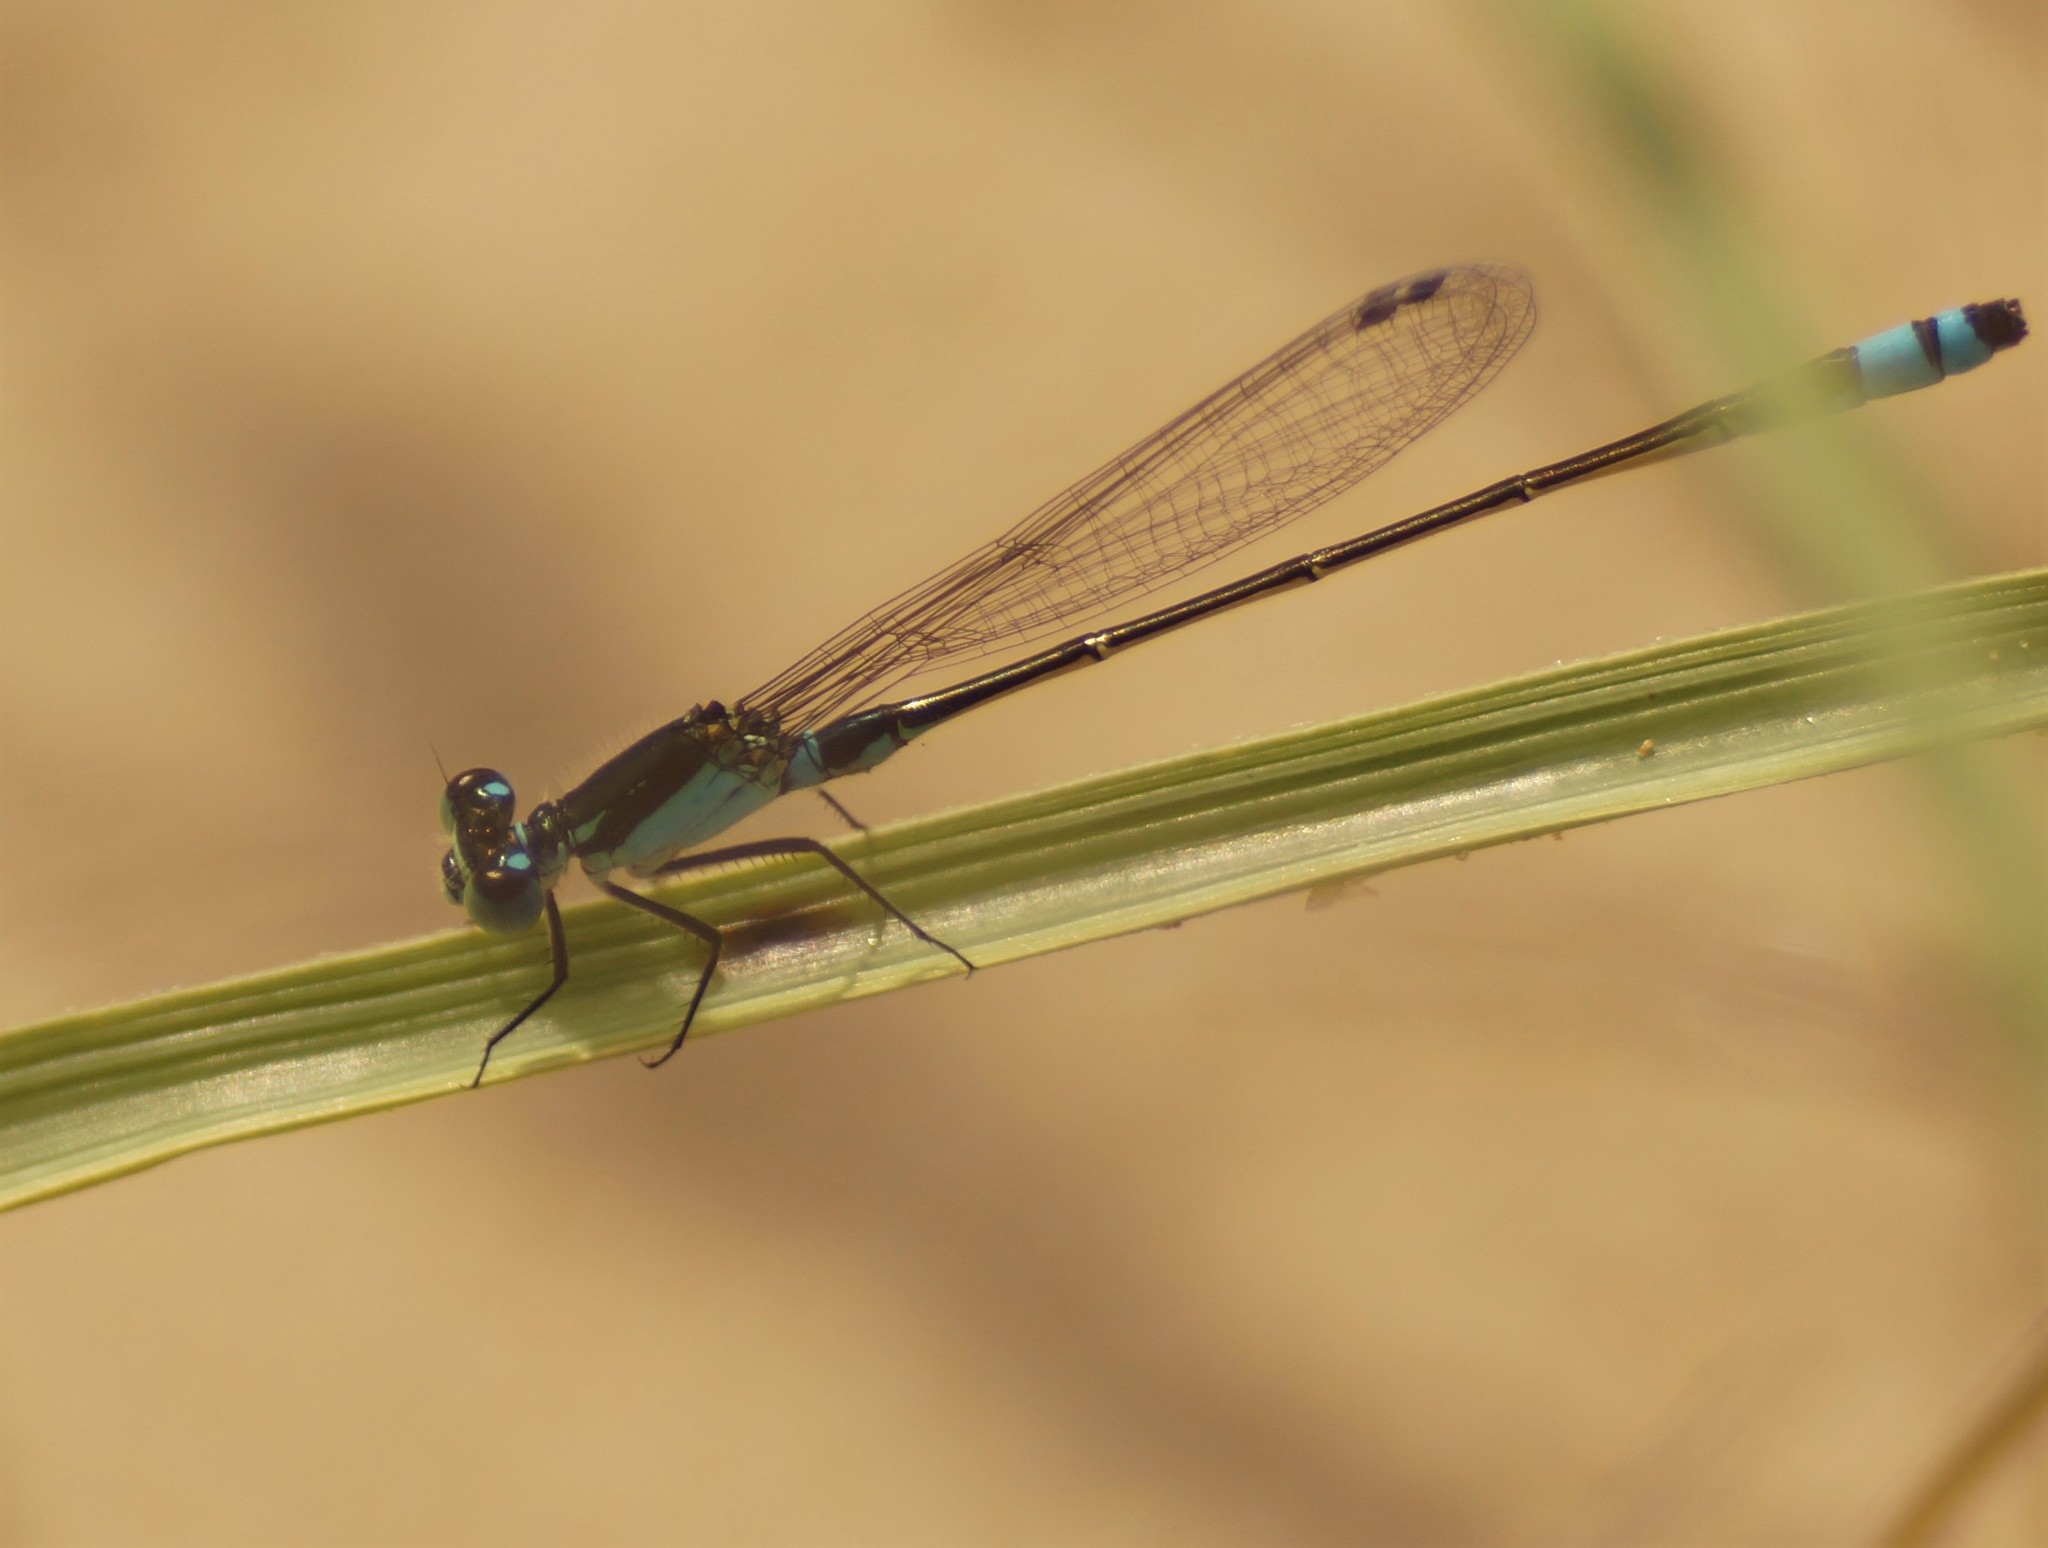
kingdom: Animalia
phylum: Arthropoda
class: Insecta
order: Odonata
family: Coenagrionidae
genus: Ischnura
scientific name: Ischnura heterosticta
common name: Common bluetail
